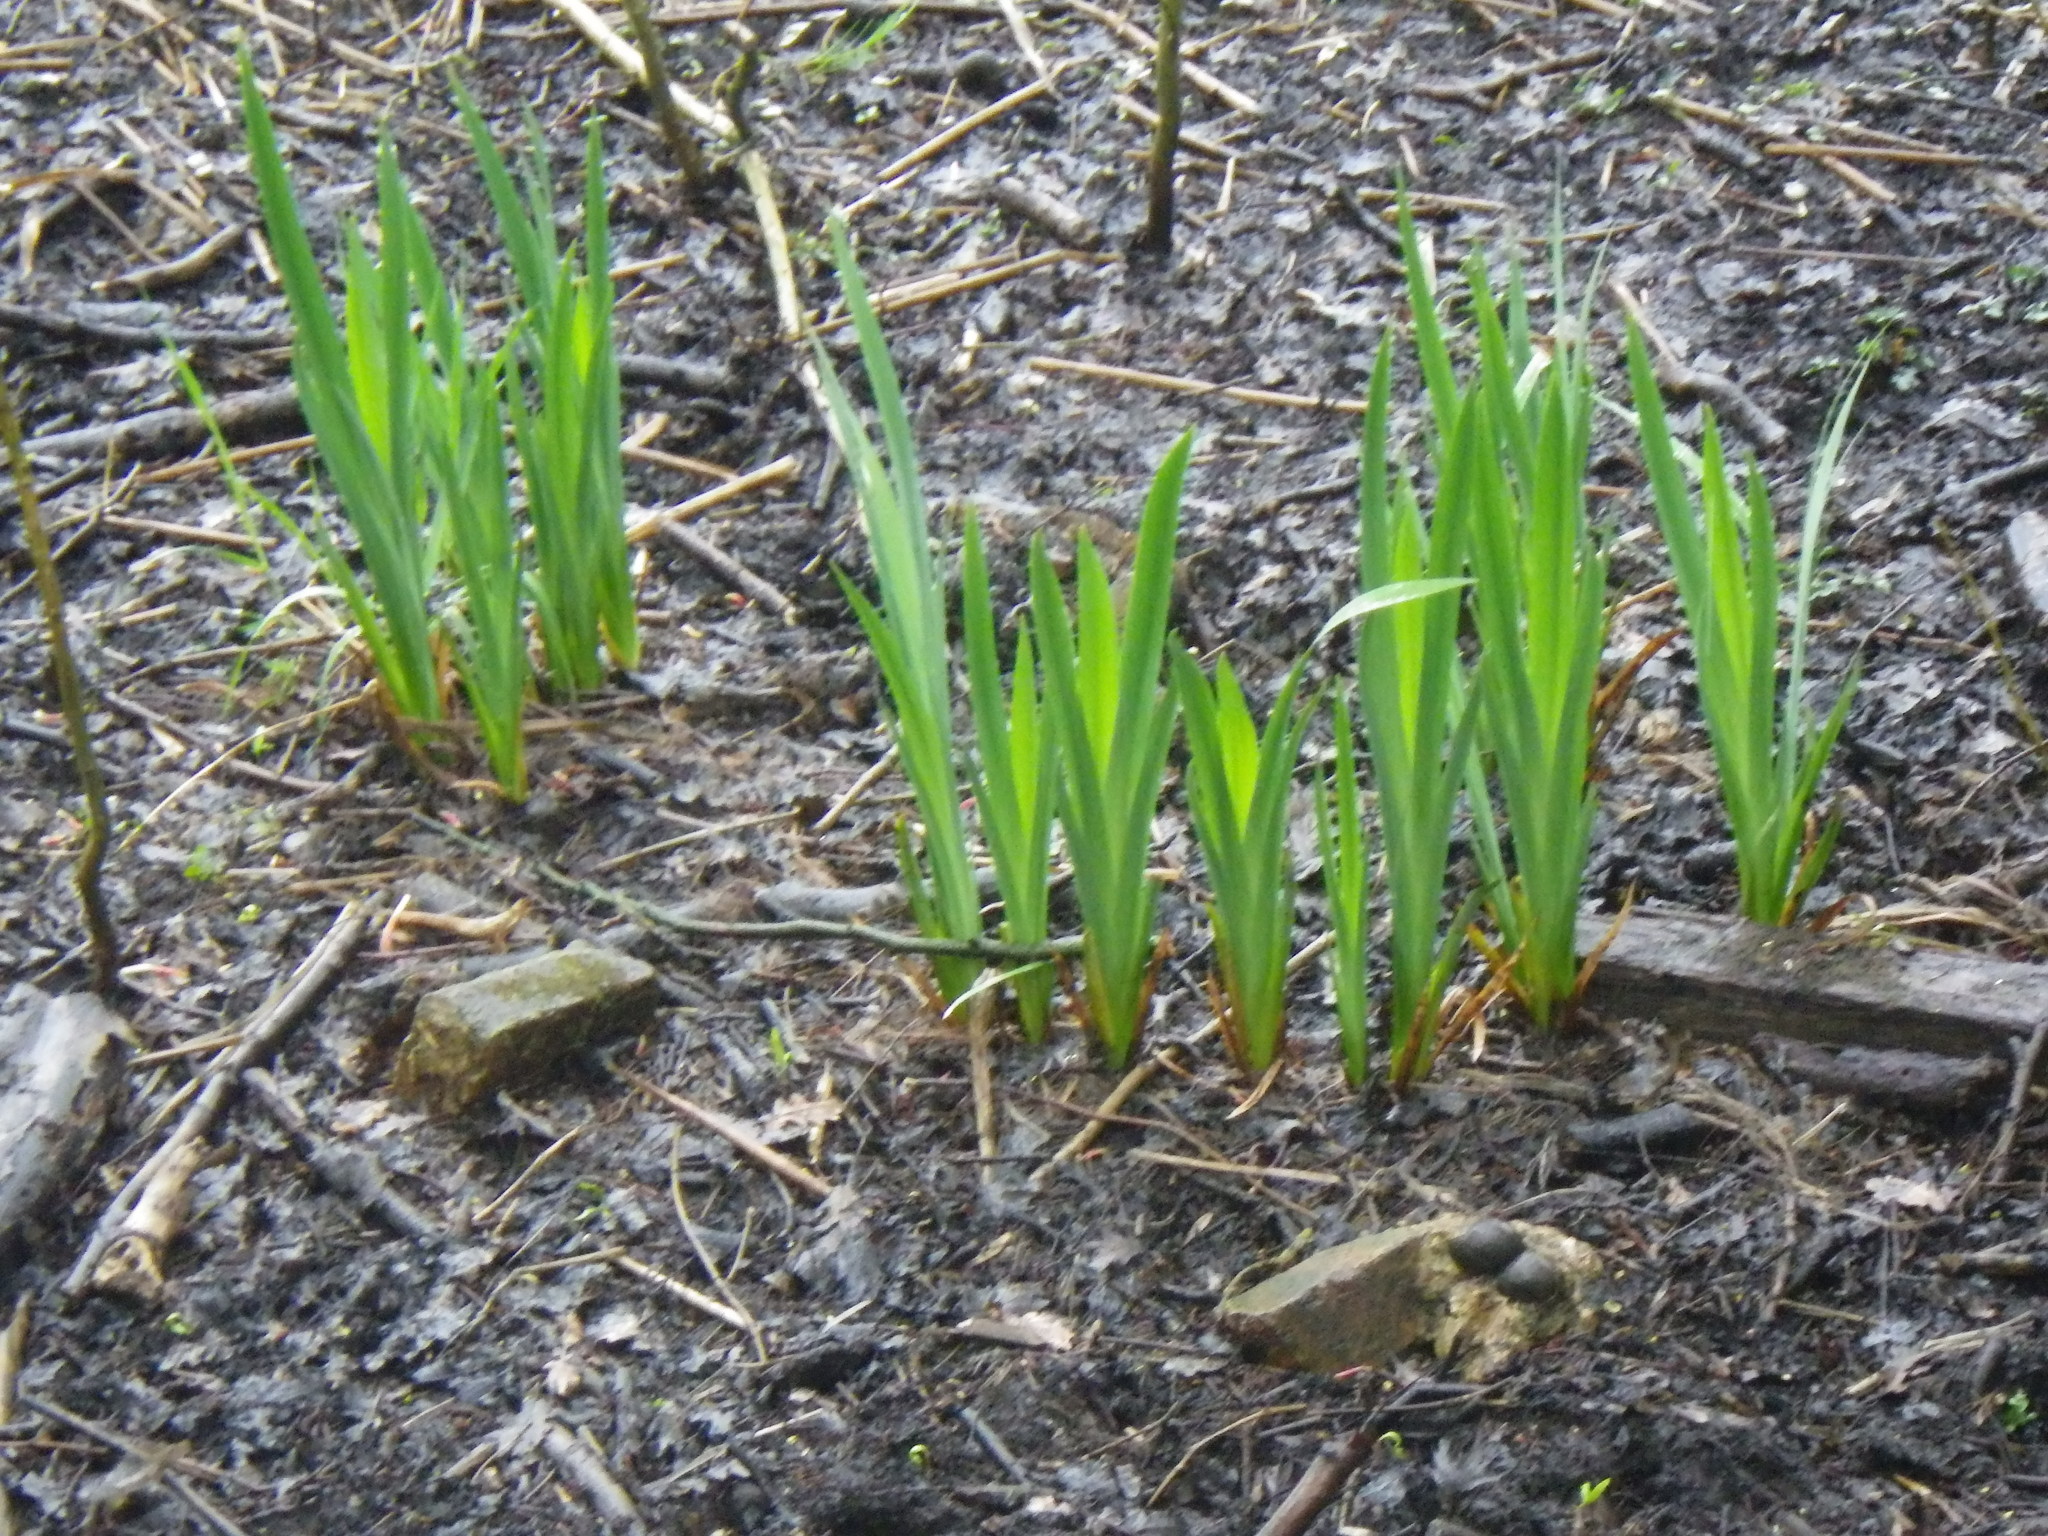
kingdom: Plantae
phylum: Tracheophyta
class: Liliopsida
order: Asparagales
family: Iridaceae
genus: Iris
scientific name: Iris pseudacorus
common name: Yellow flag
